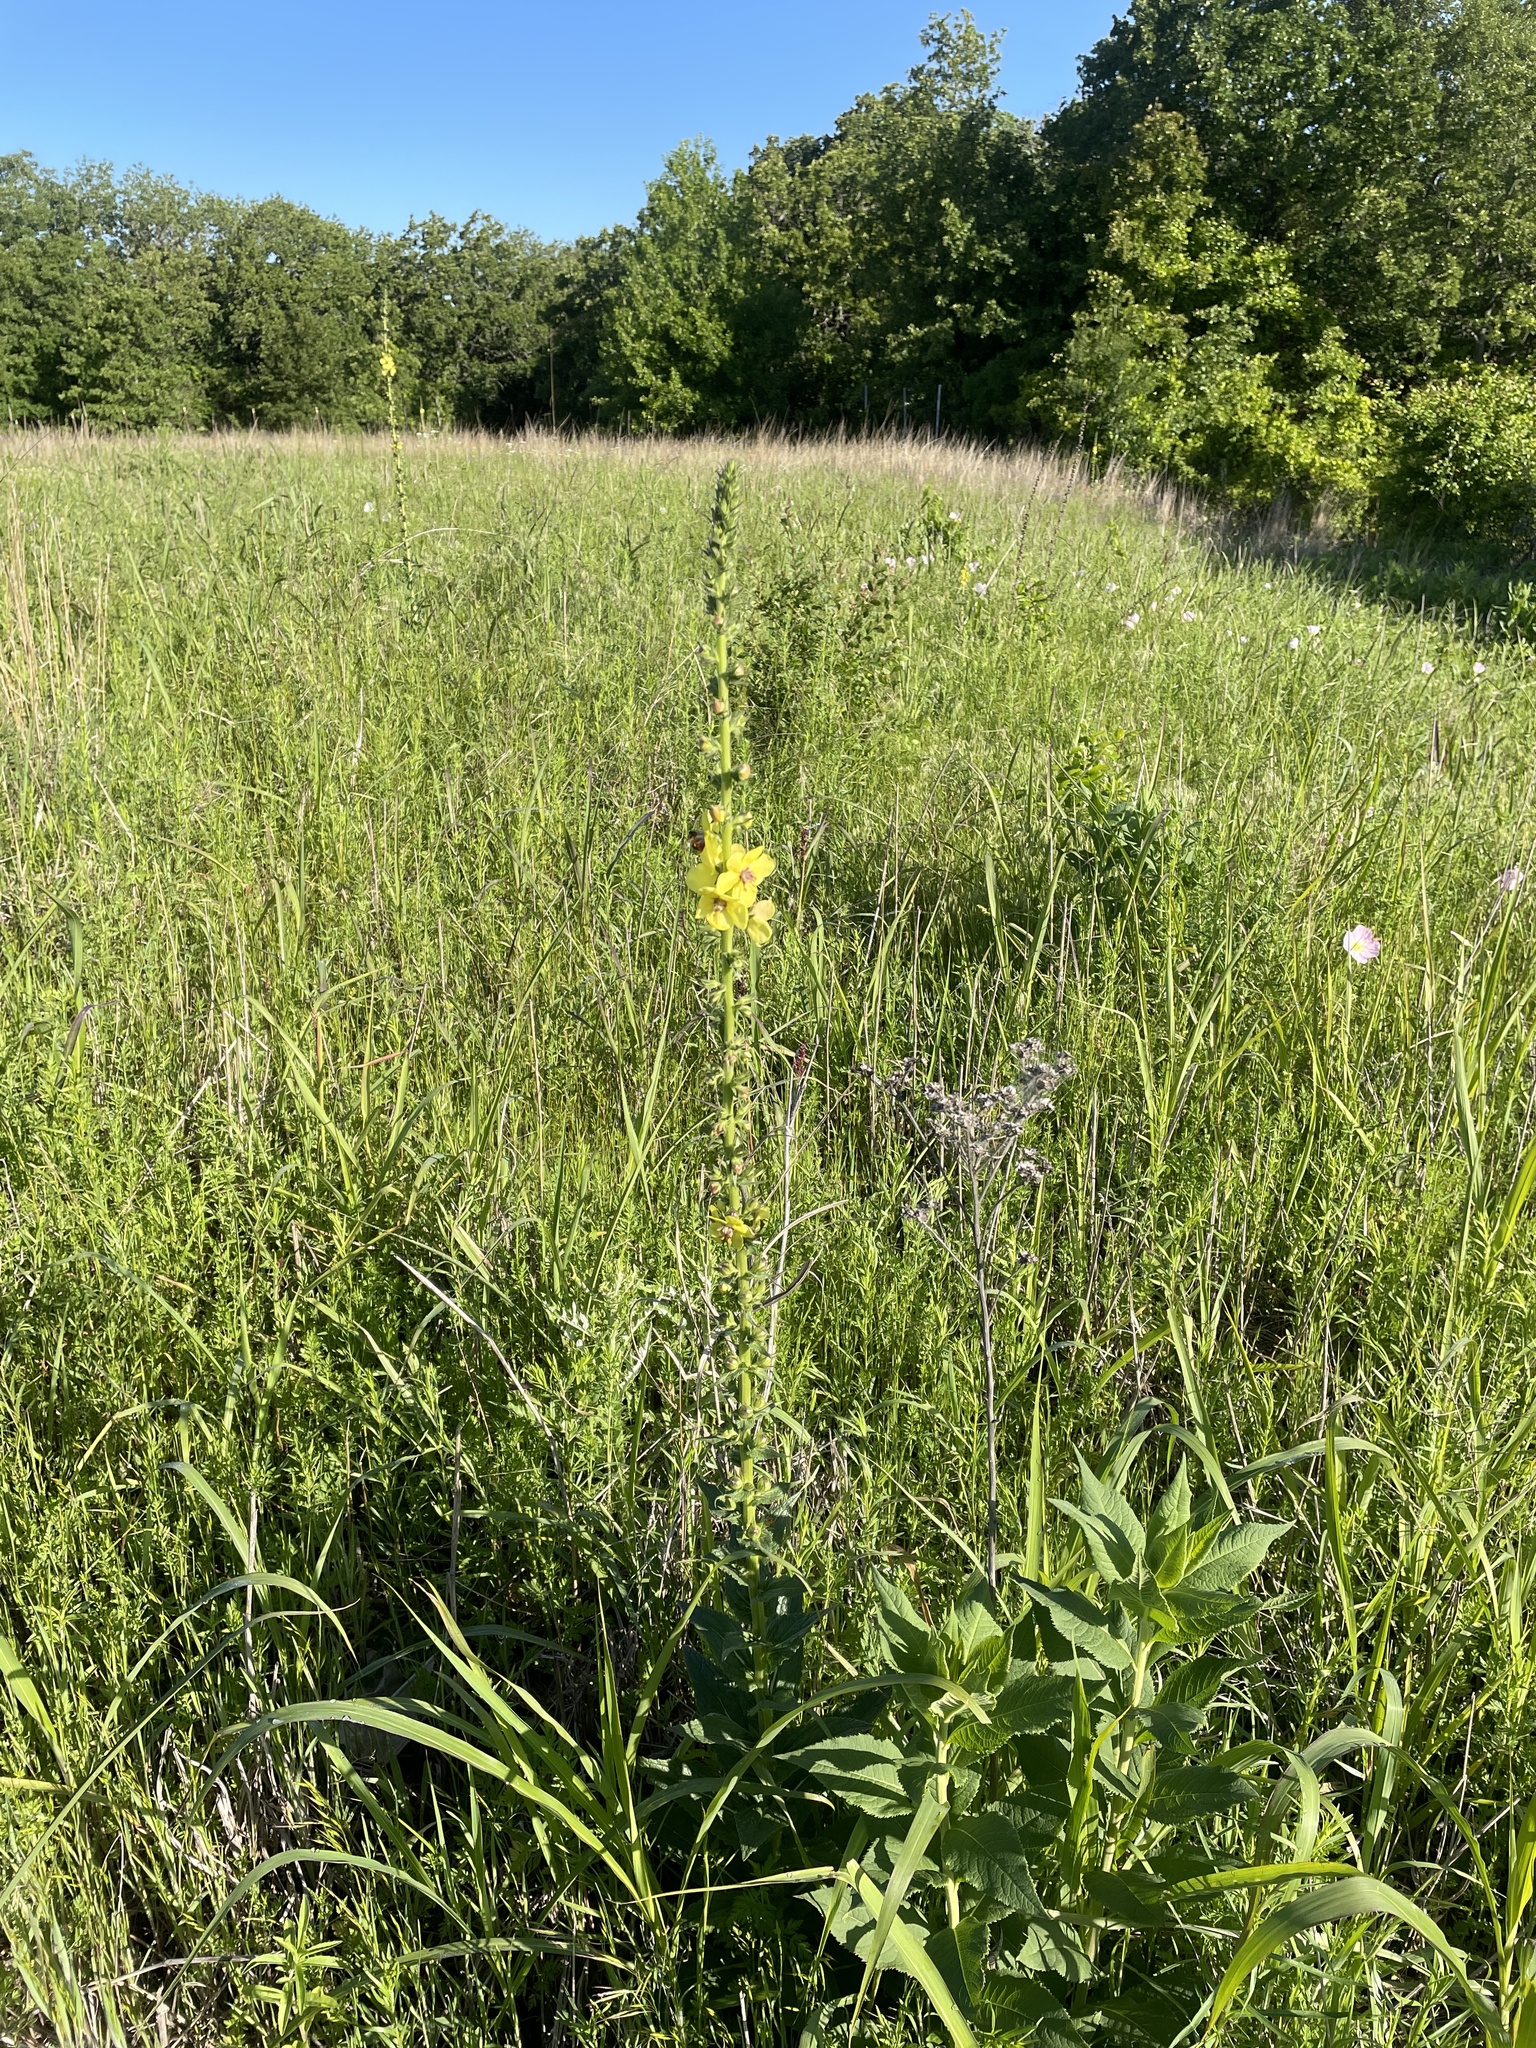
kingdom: Plantae
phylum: Tracheophyta
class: Magnoliopsida
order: Lamiales
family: Scrophulariaceae
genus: Verbascum
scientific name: Verbascum virgatum
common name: Twiggy mullein
